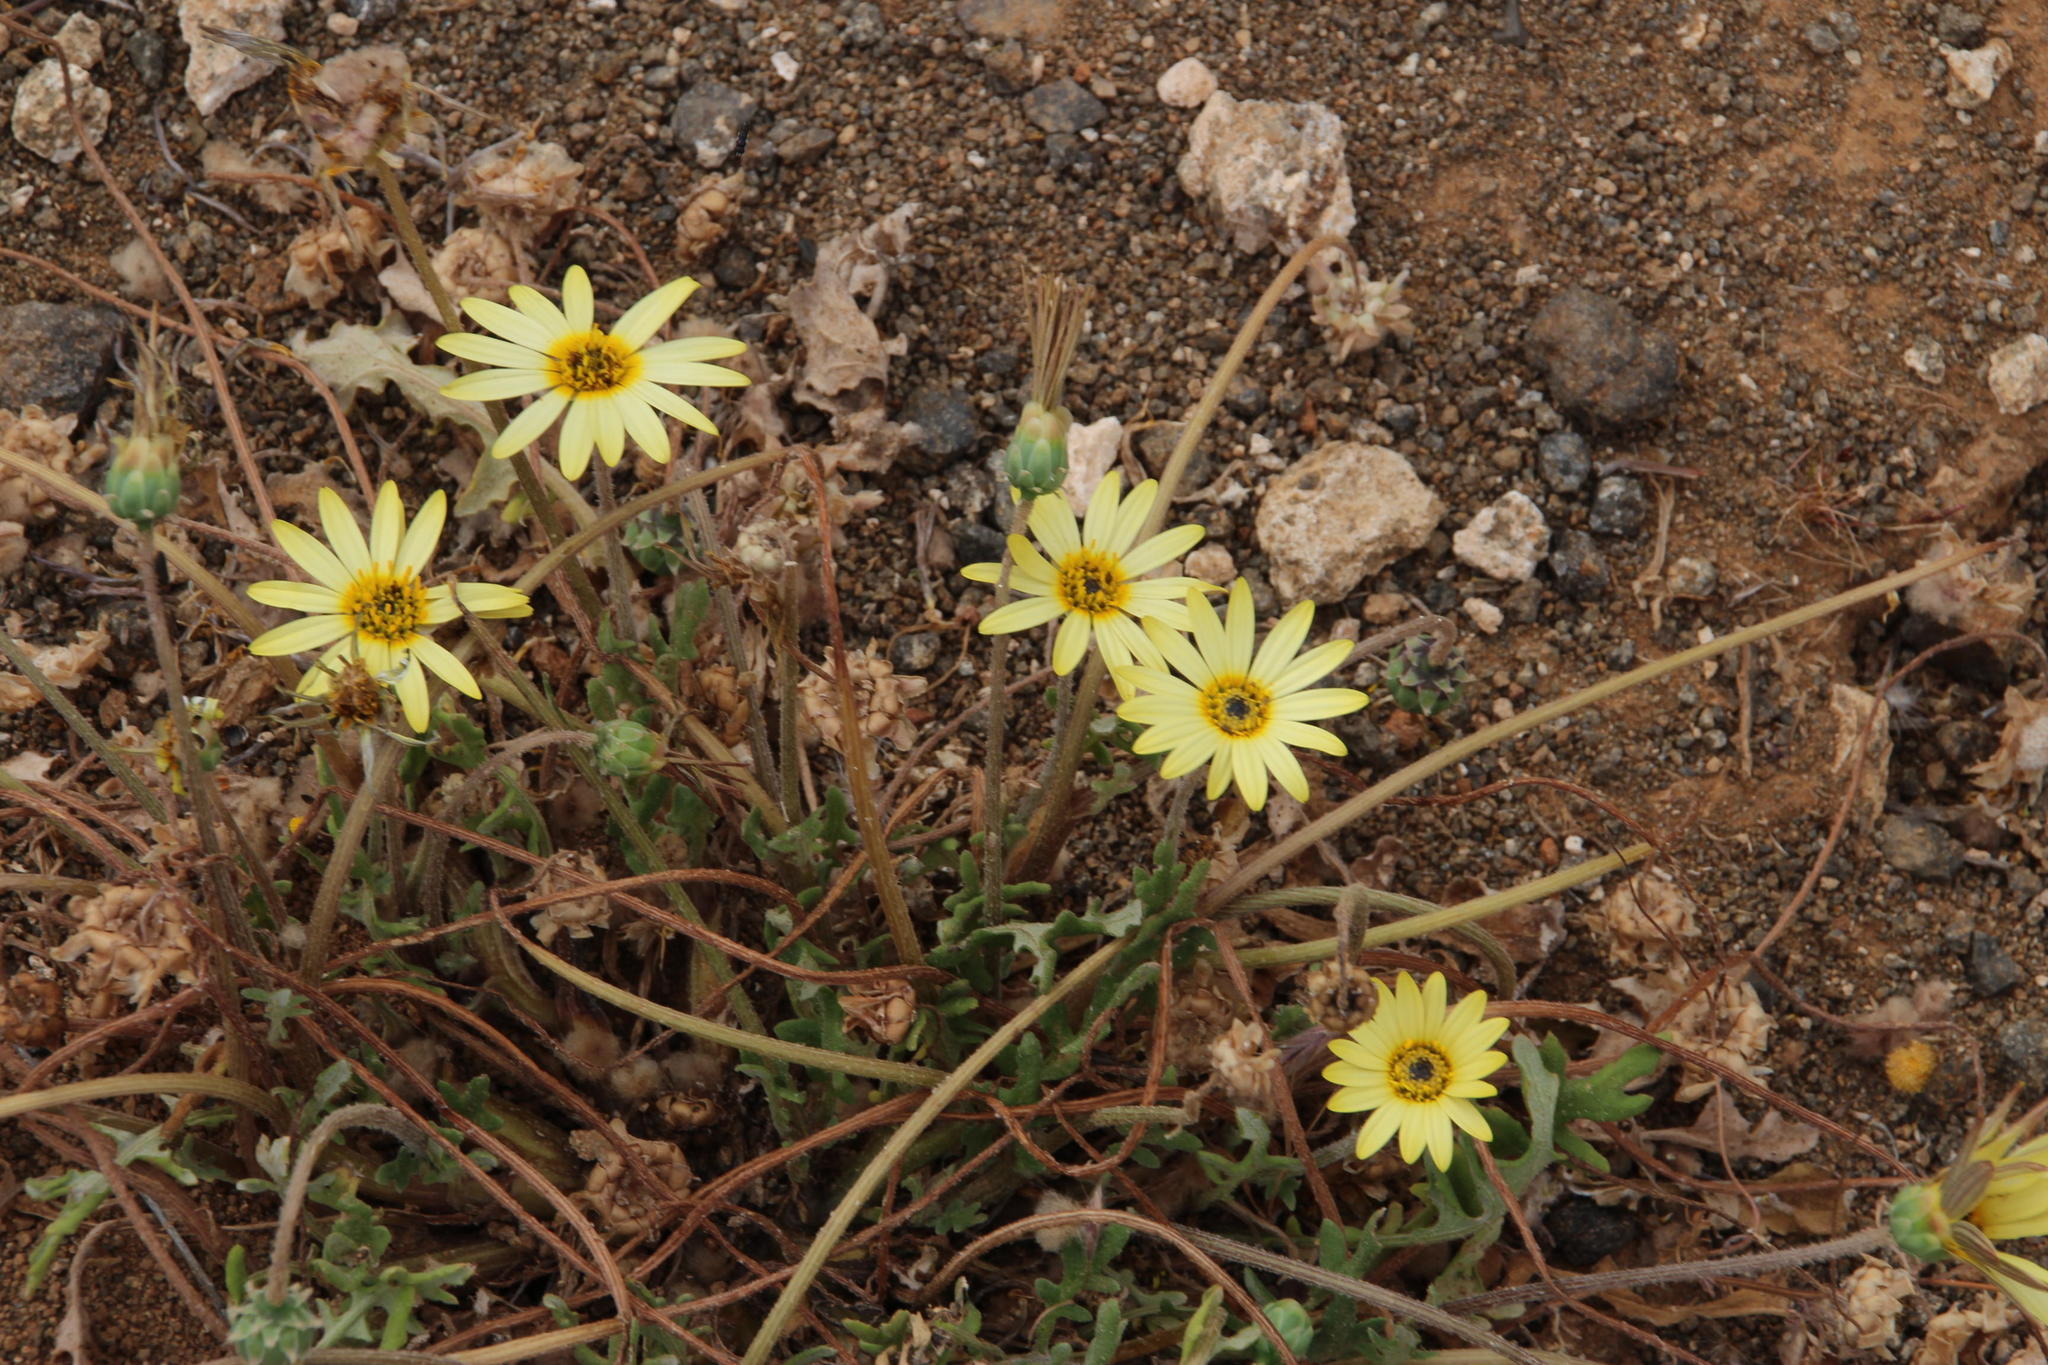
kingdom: Plantae
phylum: Tracheophyta
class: Magnoliopsida
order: Asterales
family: Asteraceae
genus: Arctotheca
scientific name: Arctotheca calendula
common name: Capeweed
